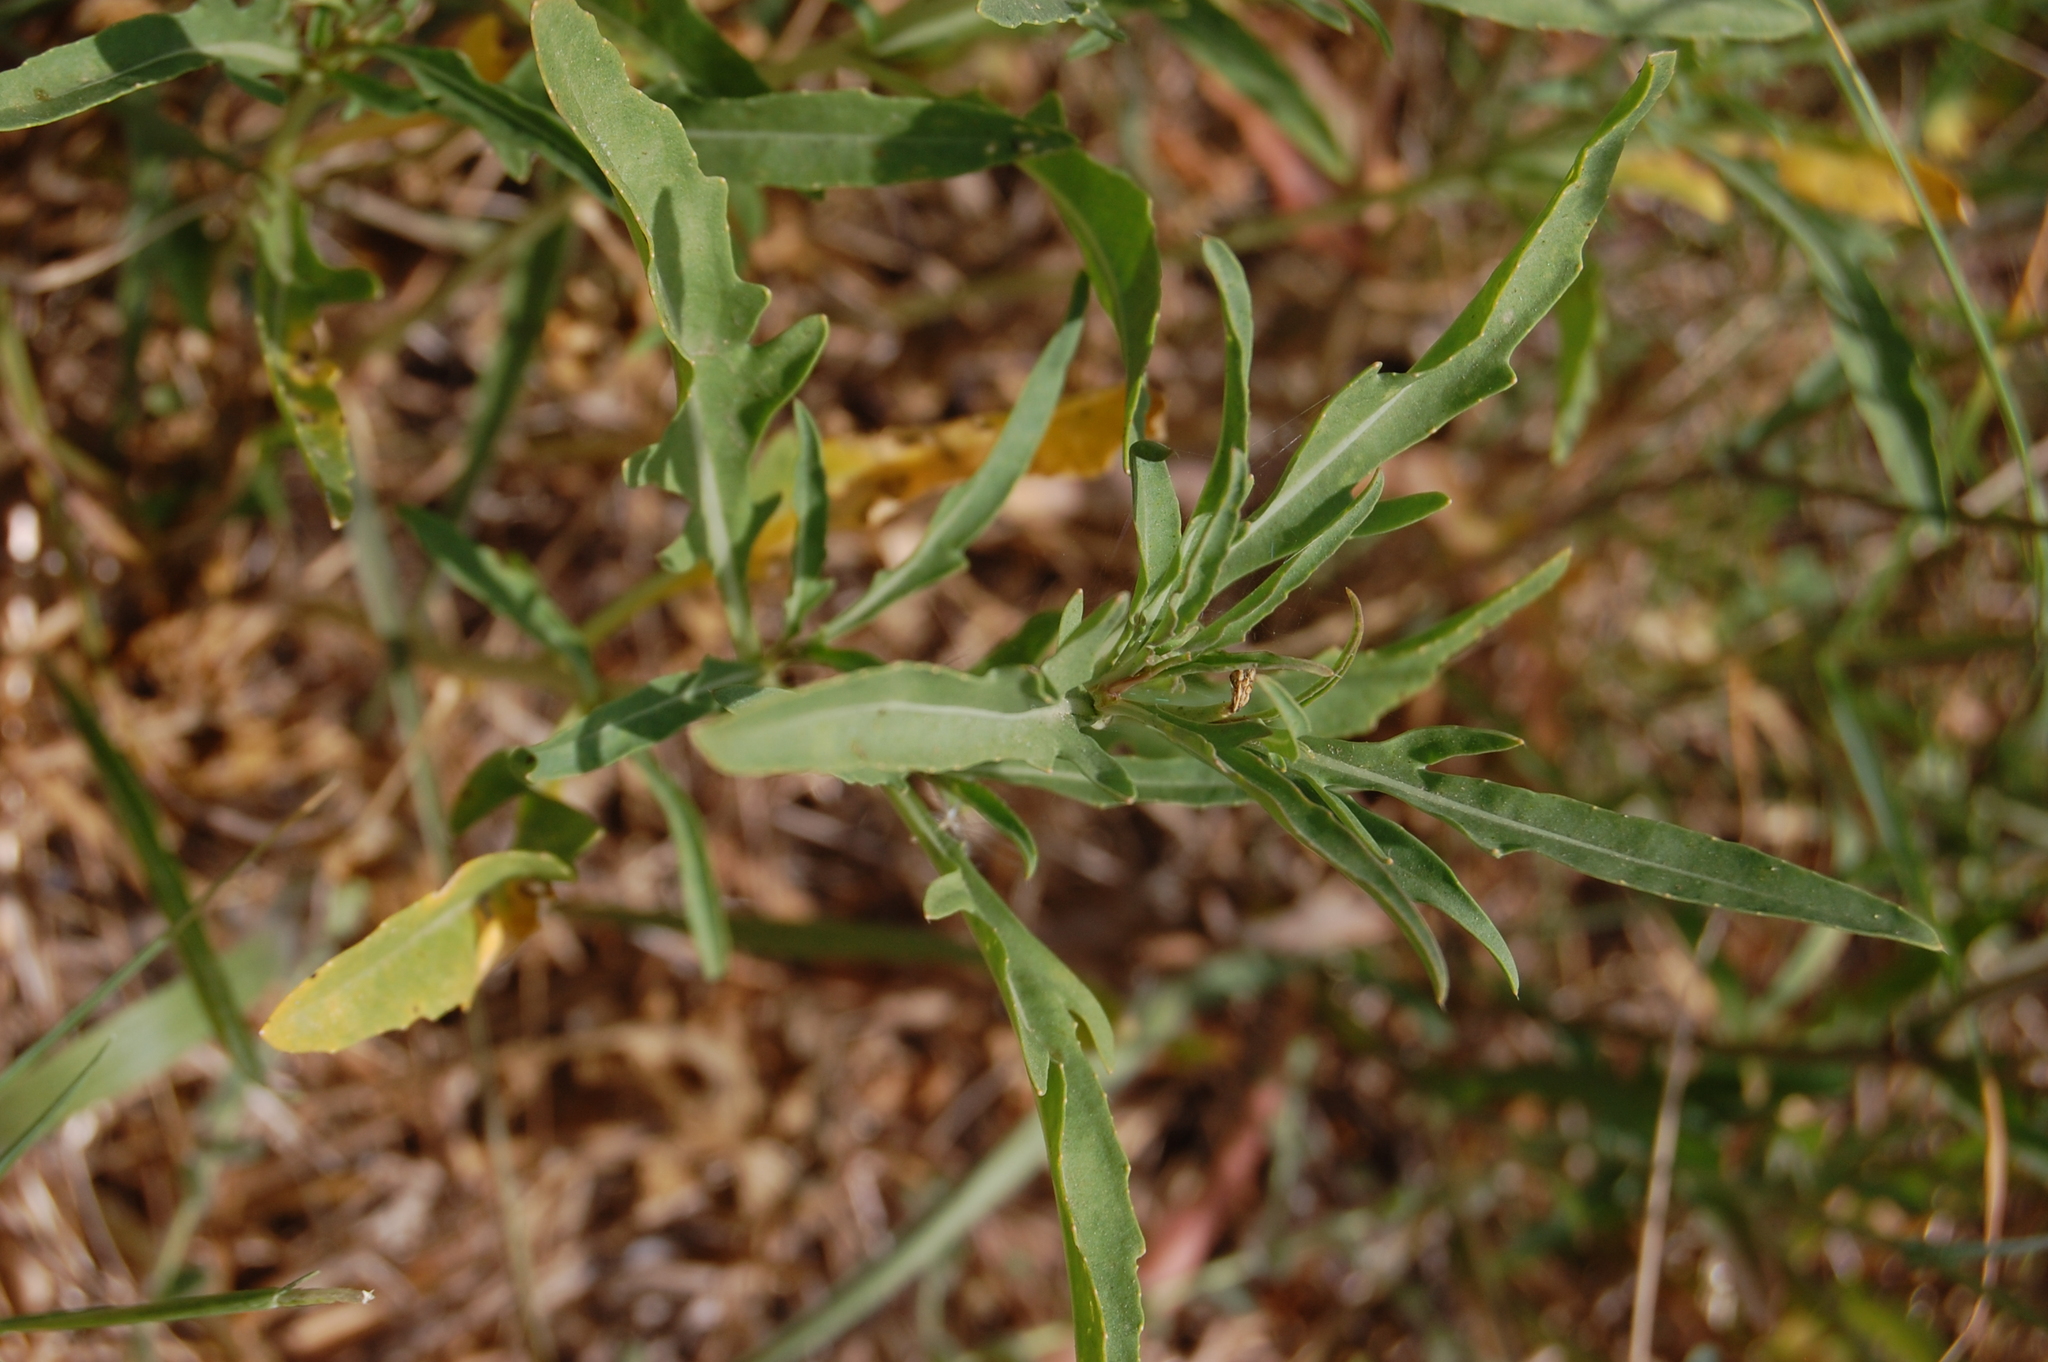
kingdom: Plantae
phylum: Tracheophyta
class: Magnoliopsida
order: Brassicales
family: Brassicaceae
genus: Diplotaxis
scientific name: Diplotaxis tenuifolia
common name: Perennial wall-rocket
